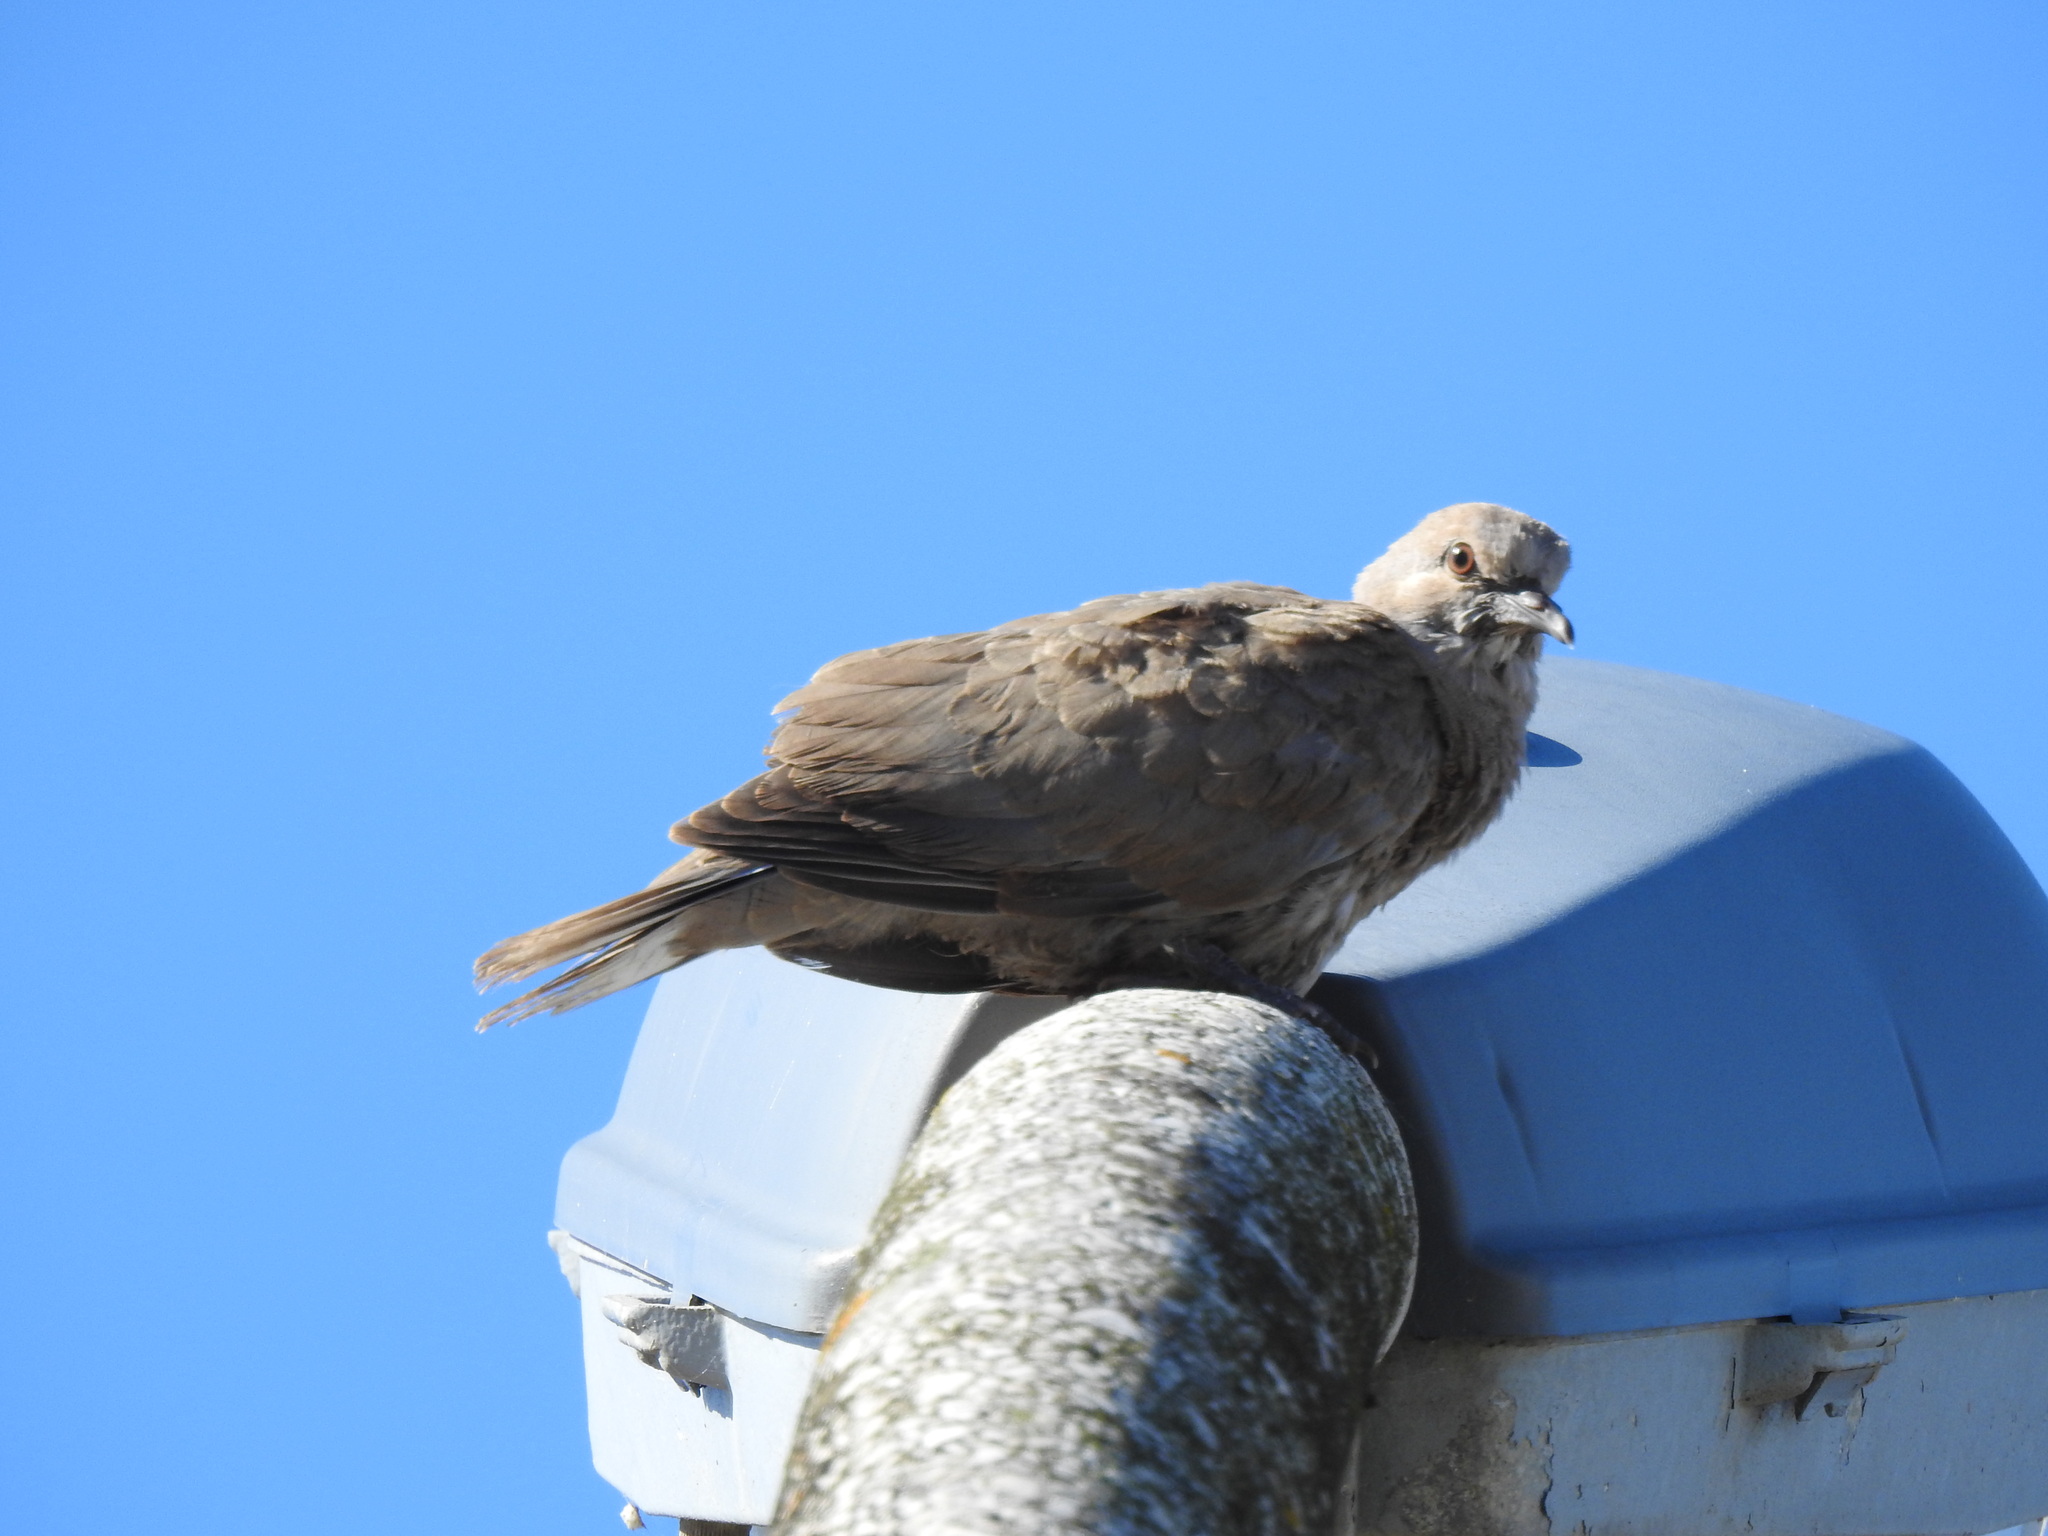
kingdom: Animalia
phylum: Chordata
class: Aves
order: Columbiformes
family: Columbidae
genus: Streptopelia
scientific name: Streptopelia decaocto
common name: Eurasian collared dove
